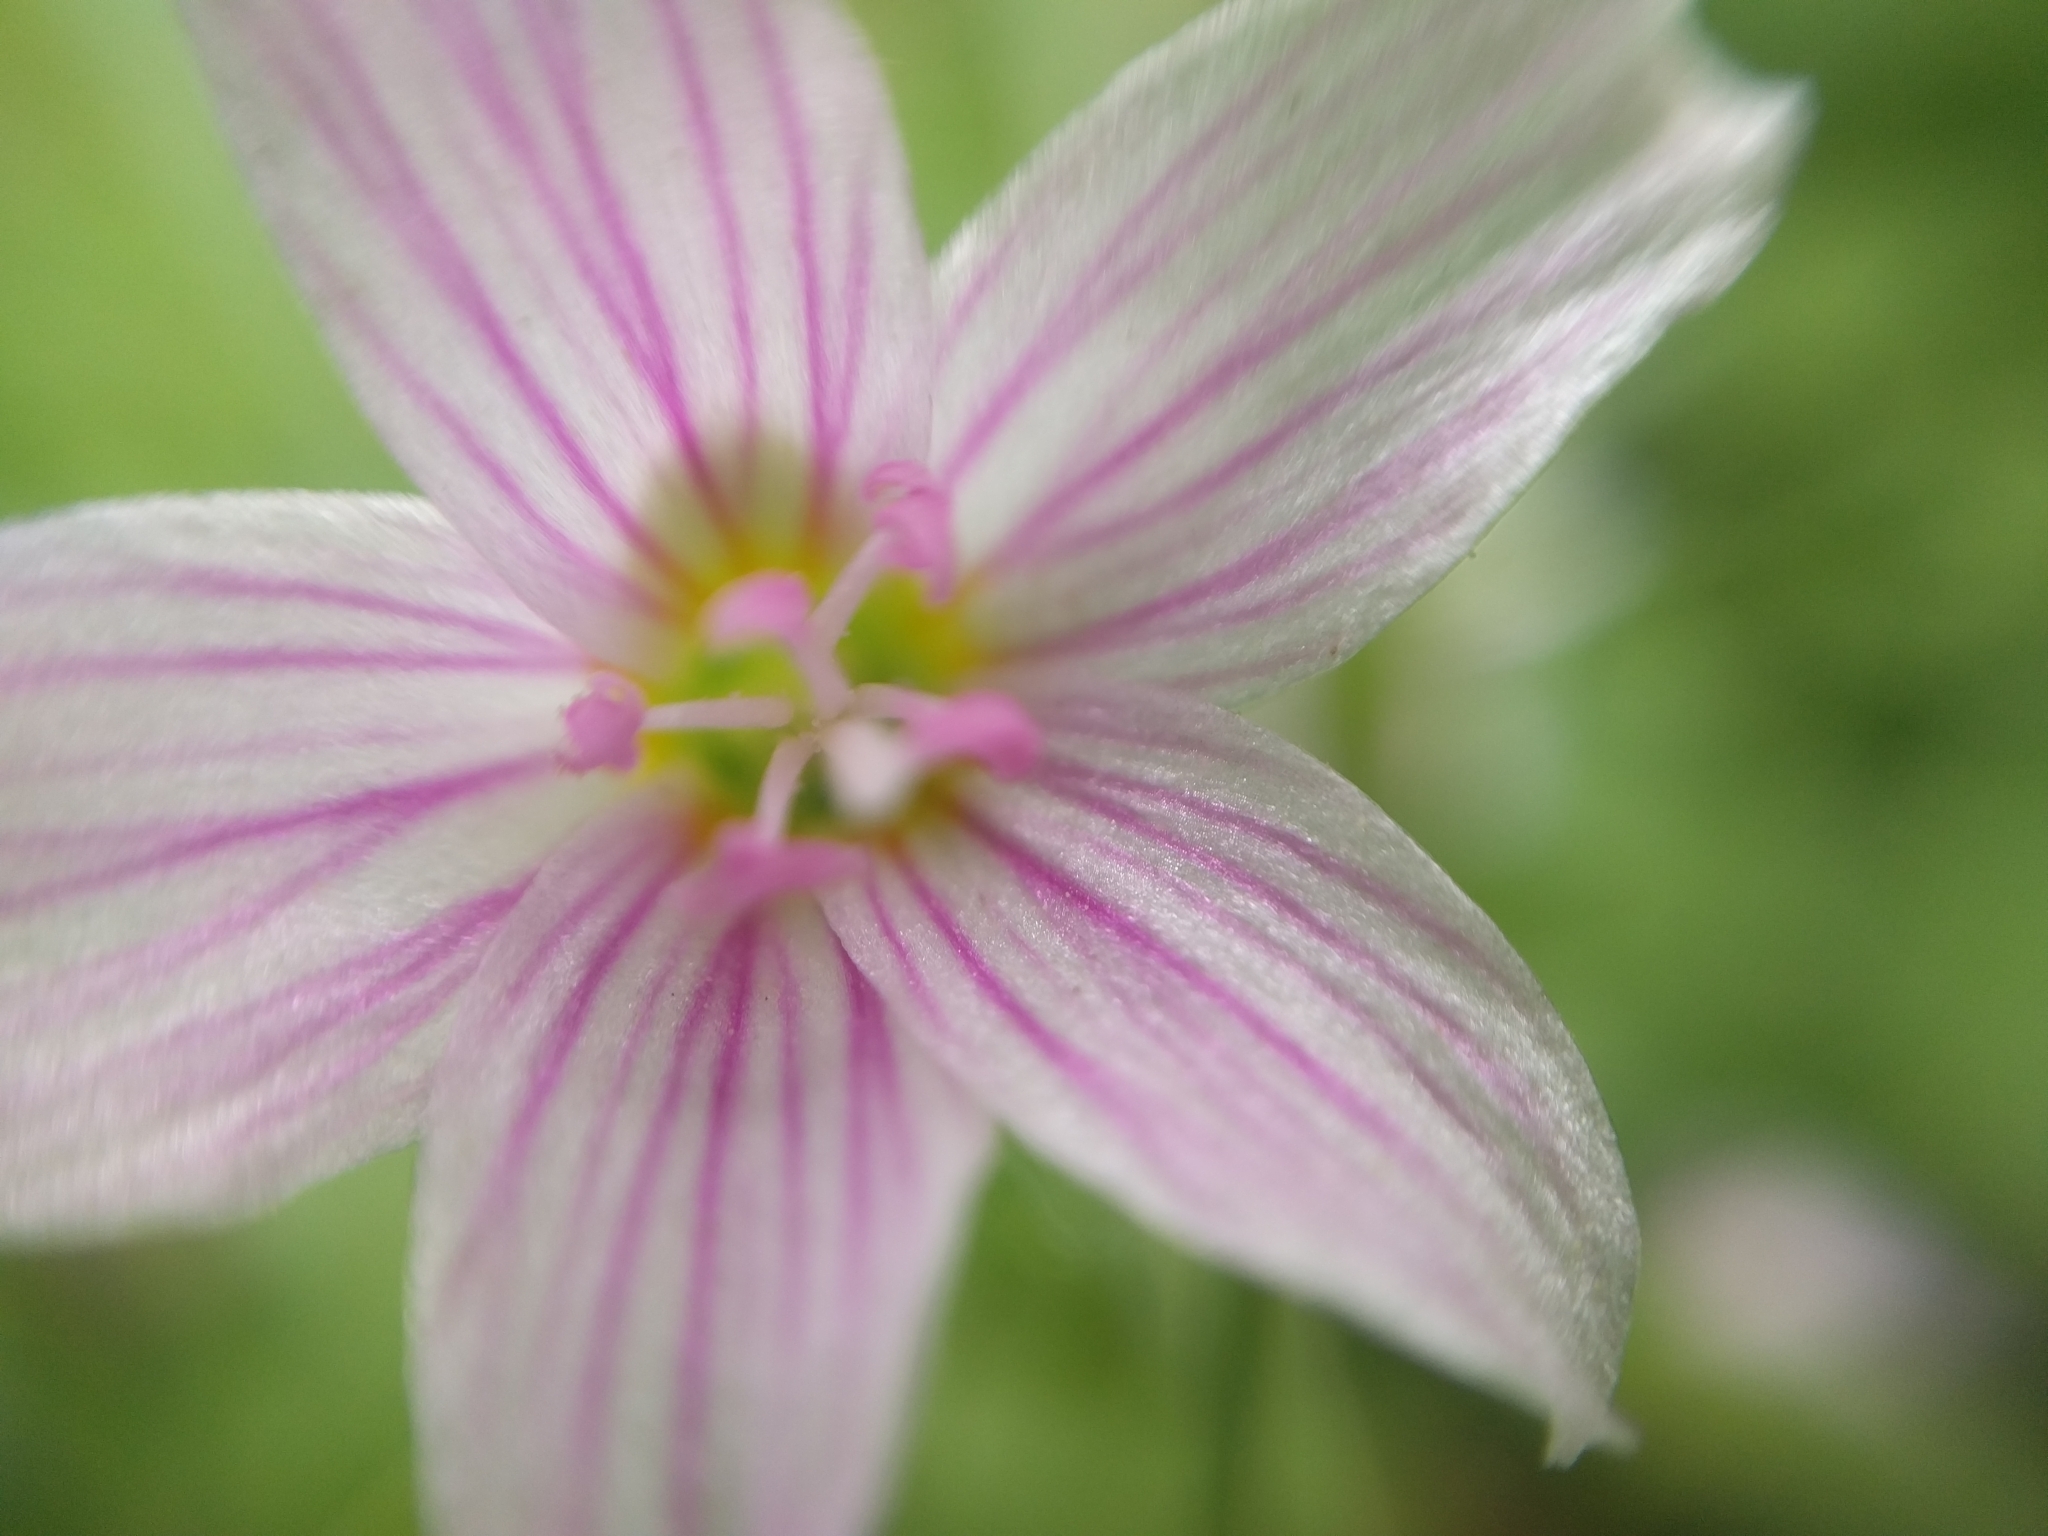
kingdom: Plantae
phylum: Tracheophyta
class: Magnoliopsida
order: Caryophyllales
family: Montiaceae
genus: Claytonia
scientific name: Claytonia virginica
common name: Virginia springbeauty
